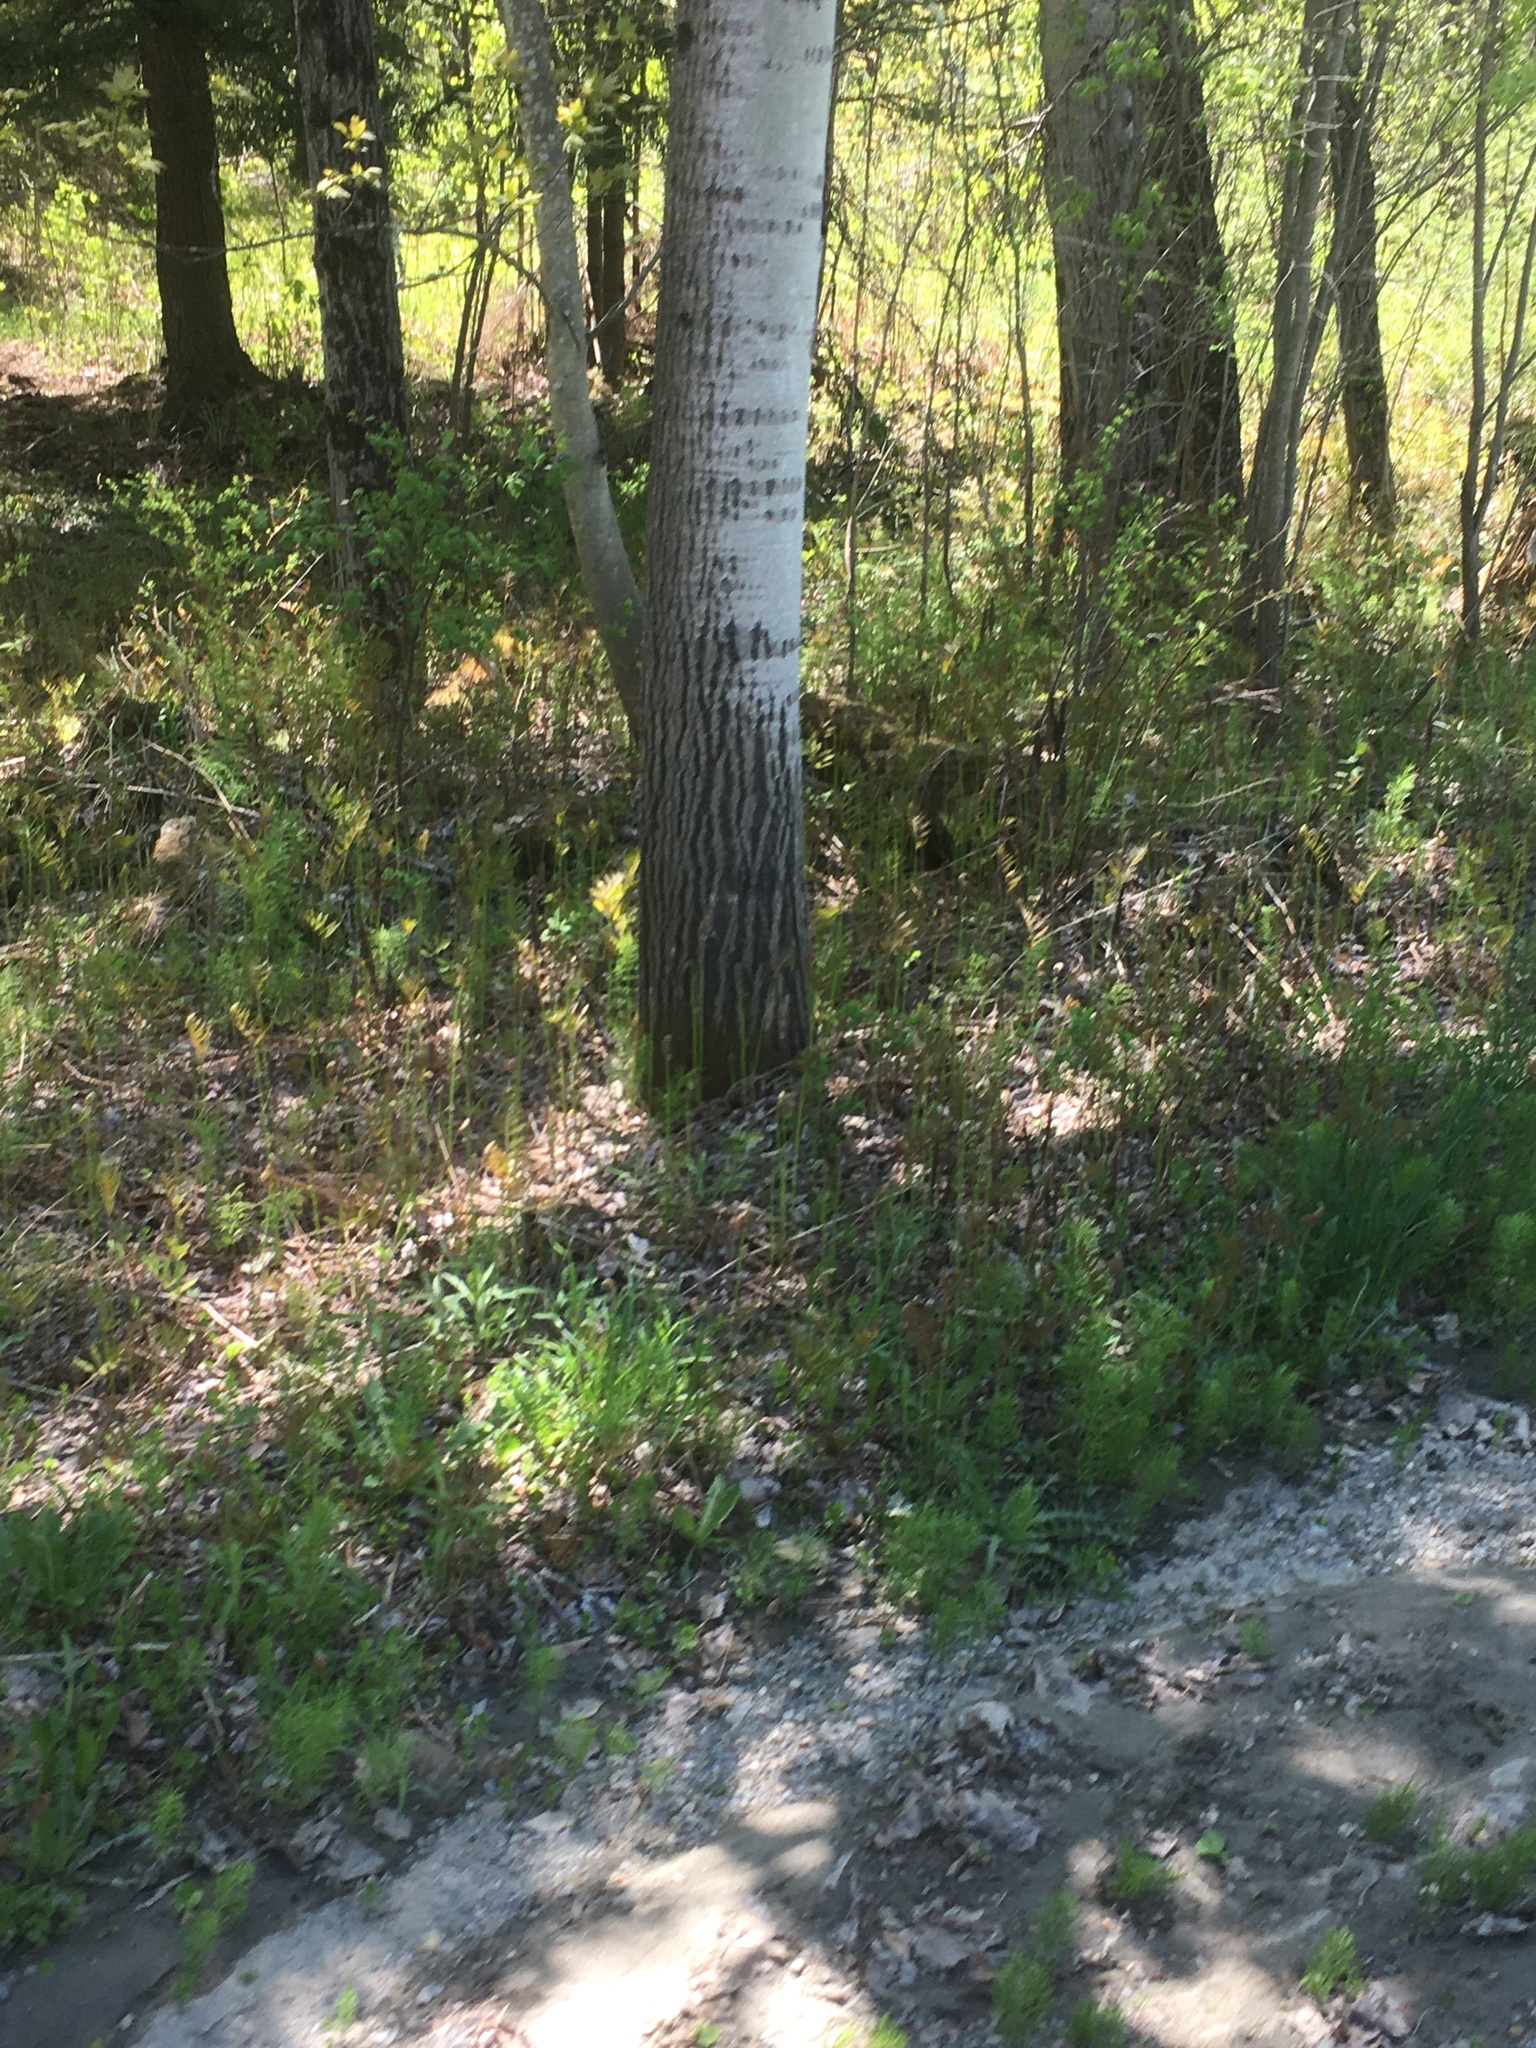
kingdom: Plantae
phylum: Tracheophyta
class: Polypodiopsida
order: Polypodiales
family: Onocleaceae
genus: Onoclea
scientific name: Onoclea sensibilis
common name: Sensitive fern
